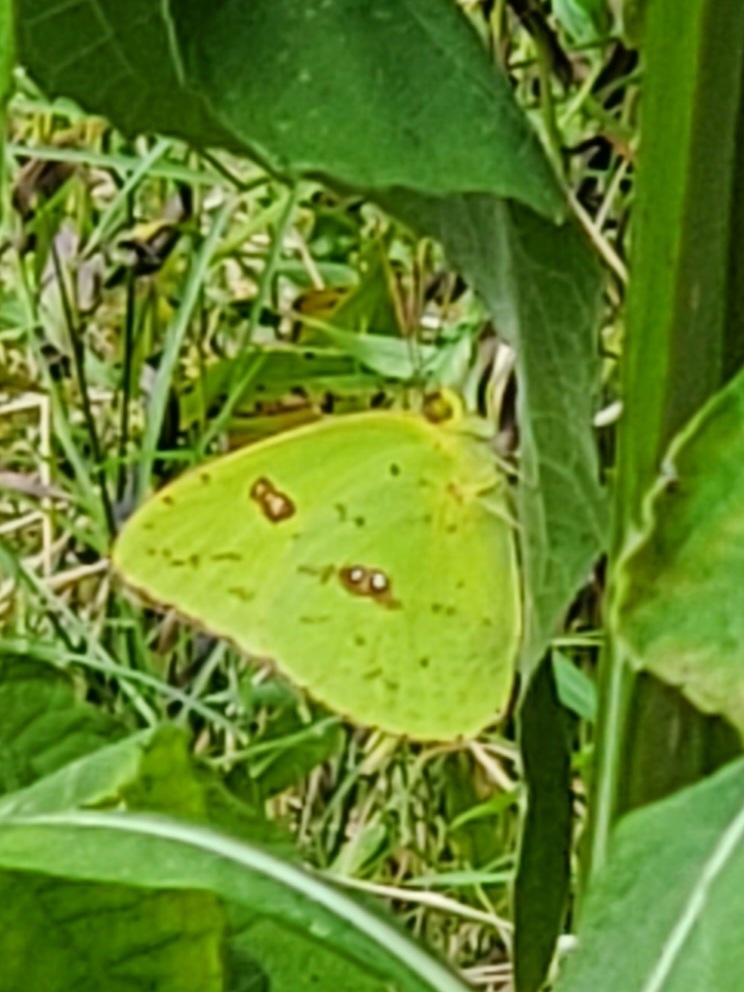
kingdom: Animalia
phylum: Arthropoda
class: Insecta
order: Lepidoptera
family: Pieridae
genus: Phoebis
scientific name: Phoebis sennae
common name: Cloudless sulphur
